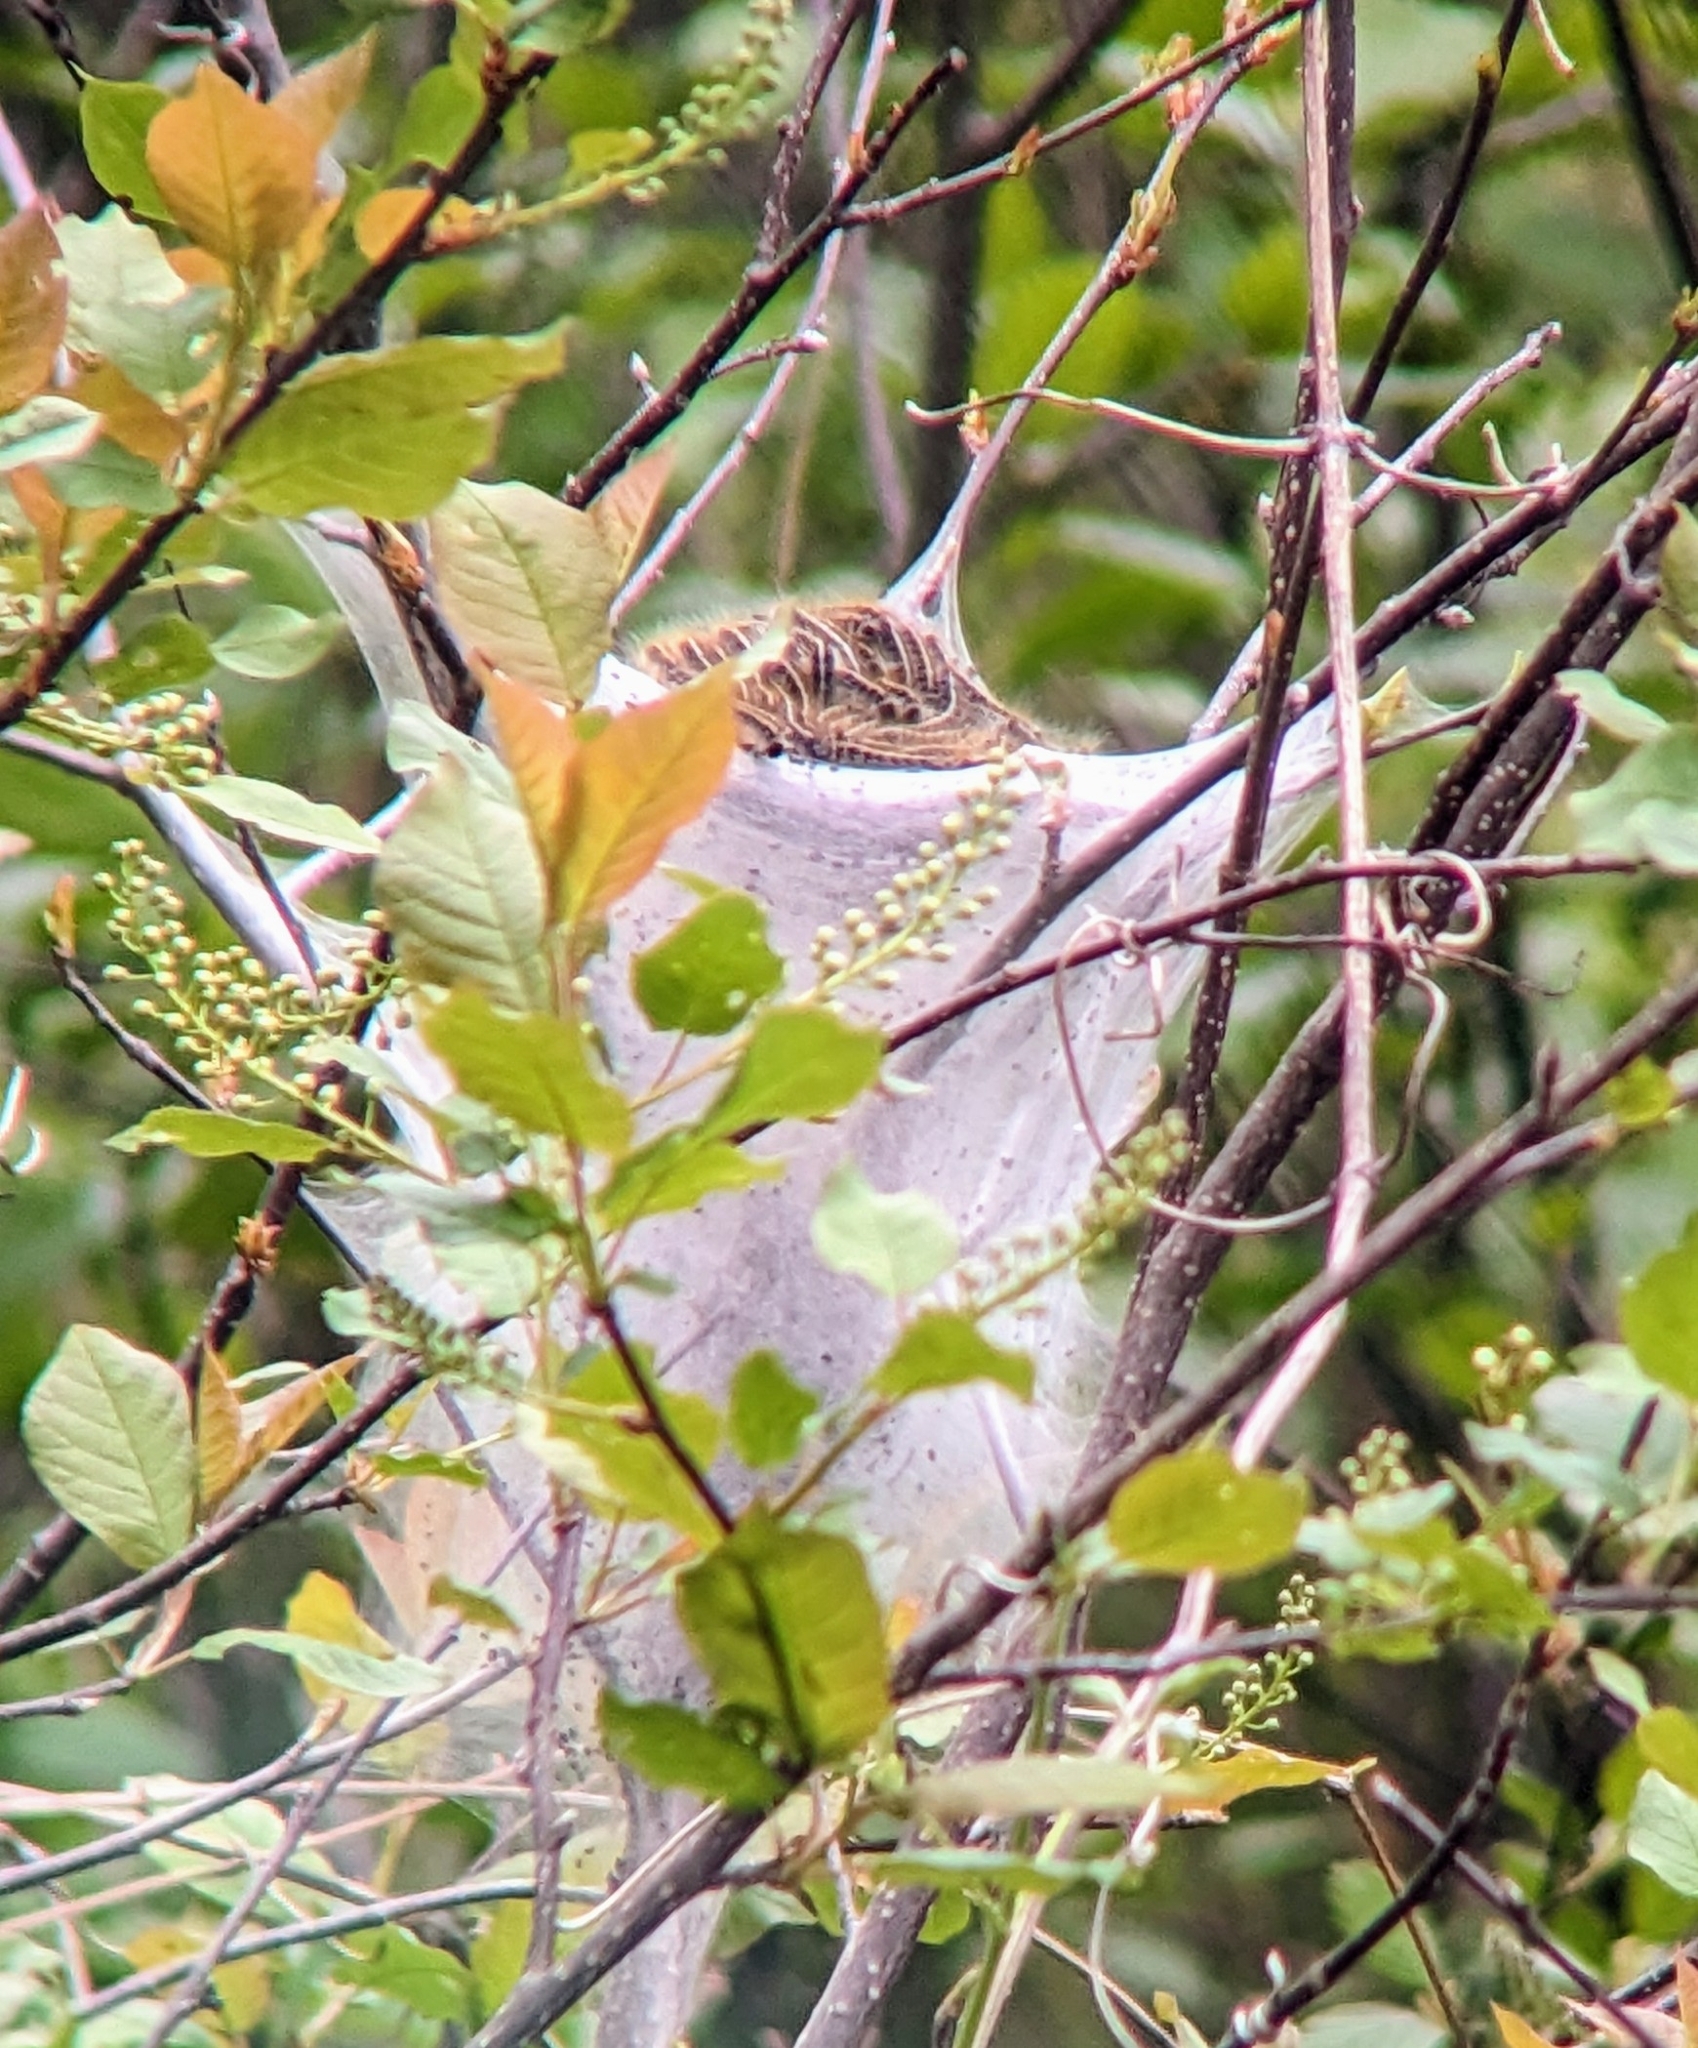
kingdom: Animalia
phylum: Arthropoda
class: Insecta
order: Lepidoptera
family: Lasiocampidae
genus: Malacosoma
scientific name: Malacosoma americana
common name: Eastern tent caterpillar moth
